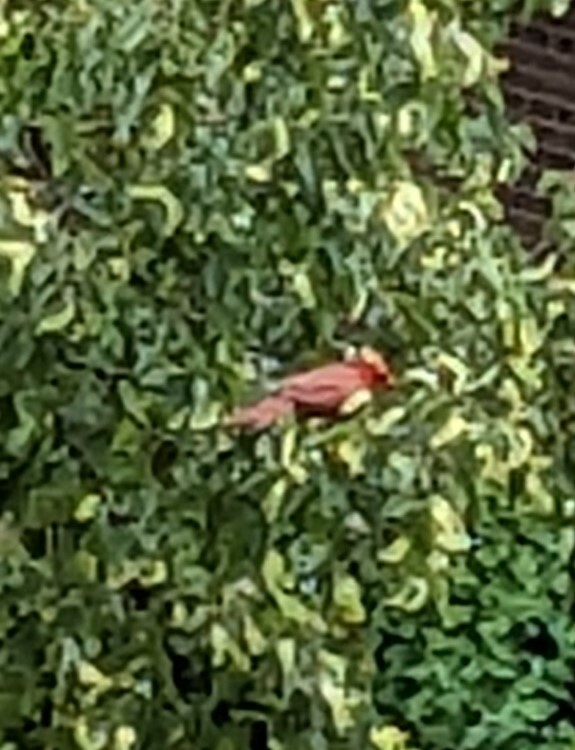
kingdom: Animalia
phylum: Chordata
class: Aves
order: Passeriformes
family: Cardinalidae
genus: Cardinalis
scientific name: Cardinalis cardinalis
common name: Northern cardinal
